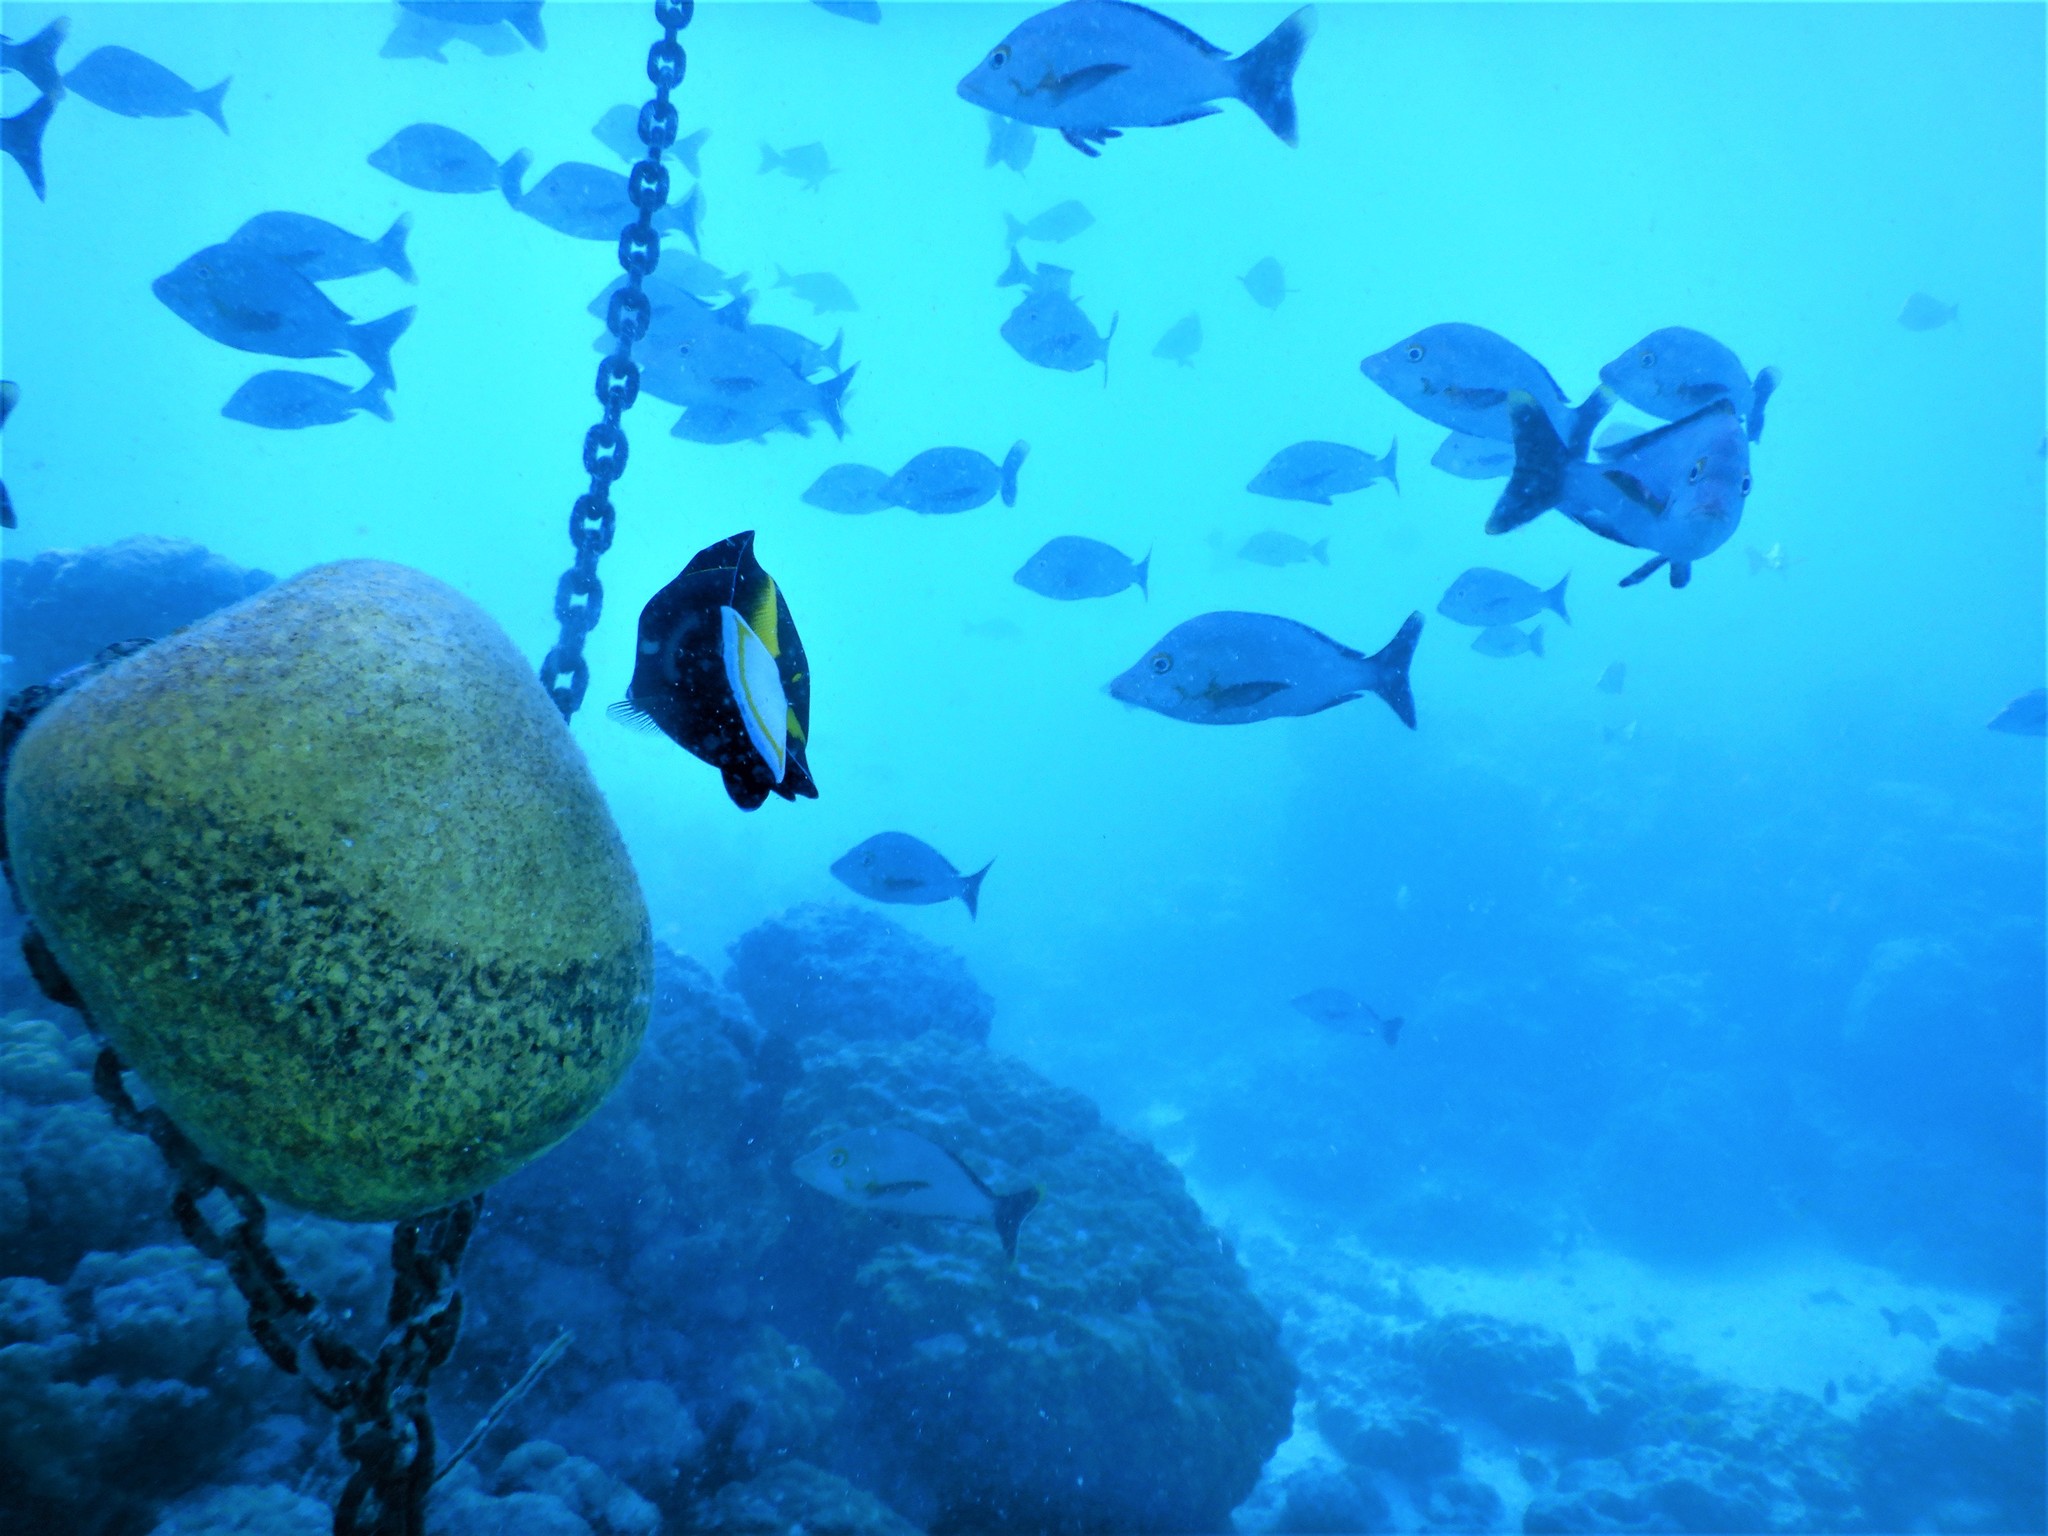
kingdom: Animalia
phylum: Chordata
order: Perciformes
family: Acanthuridae
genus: Acanthurus
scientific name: Acanthurus nigricans
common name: Whitecheek surgeonfish
